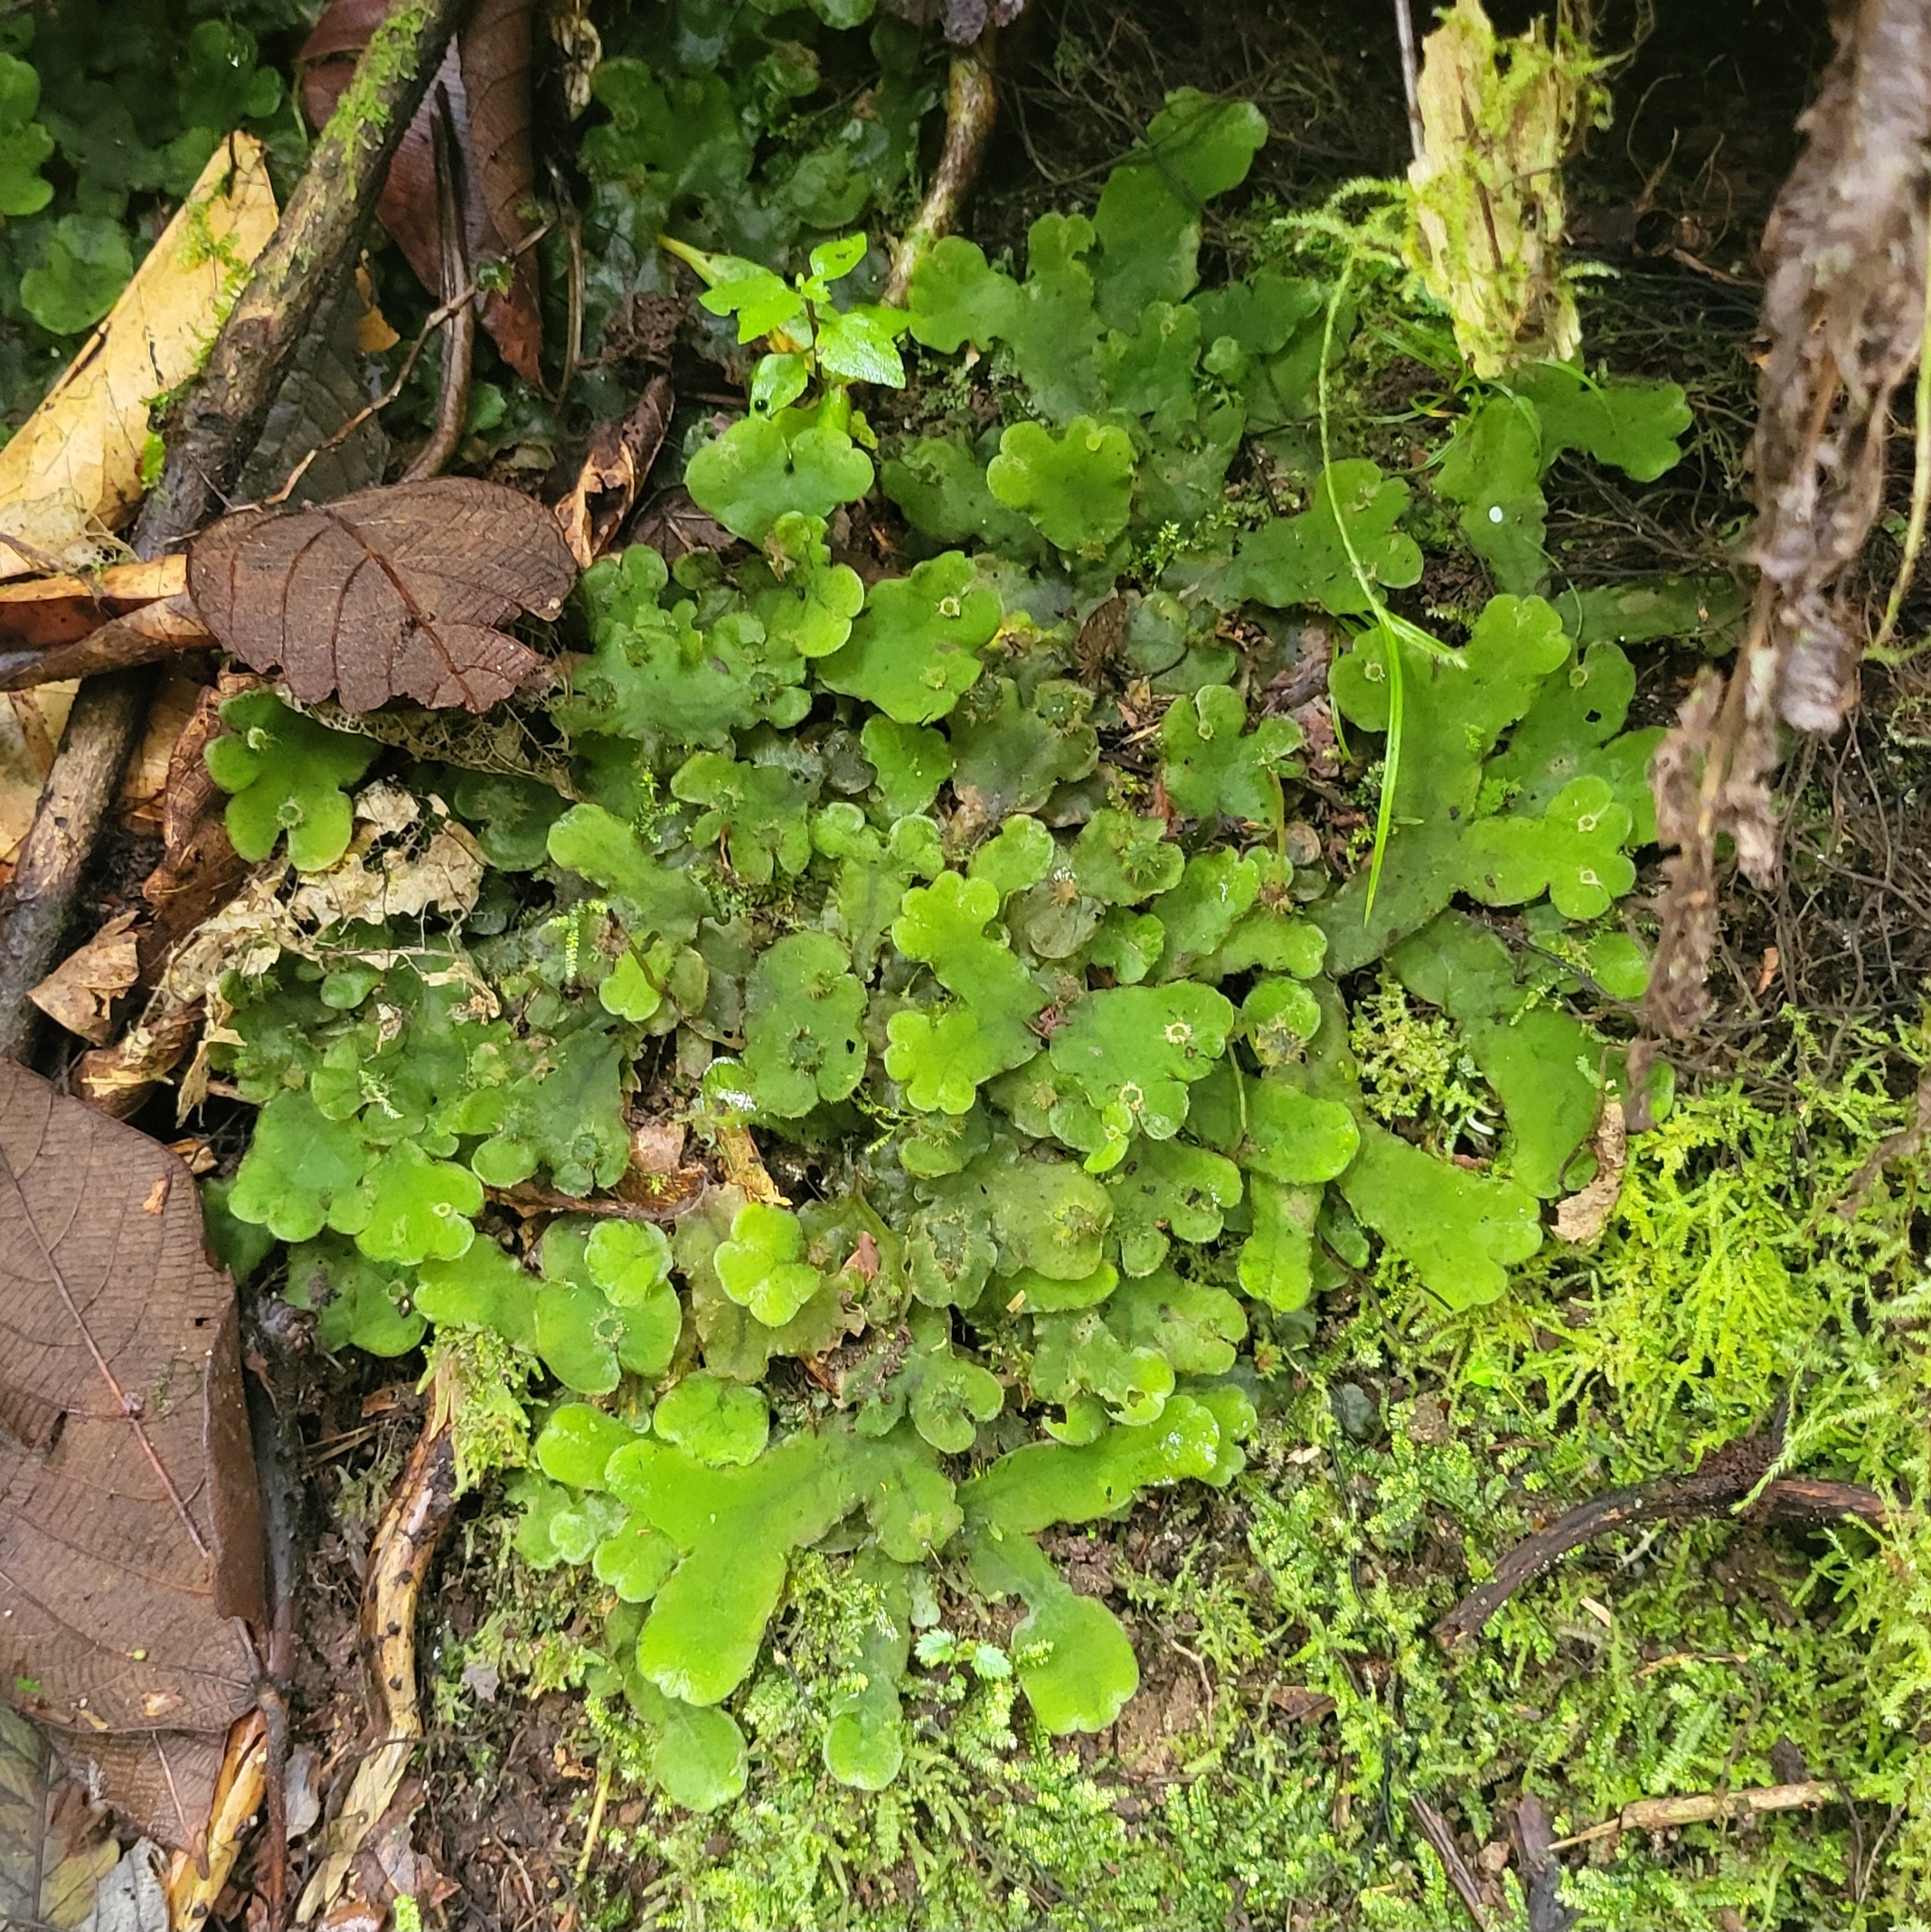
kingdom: Plantae
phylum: Marchantiophyta
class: Marchantiopsida
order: Marchantiales
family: Dumortieraceae
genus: Dumortiera
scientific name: Dumortiera hirsuta
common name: Dumortier's liverwort
